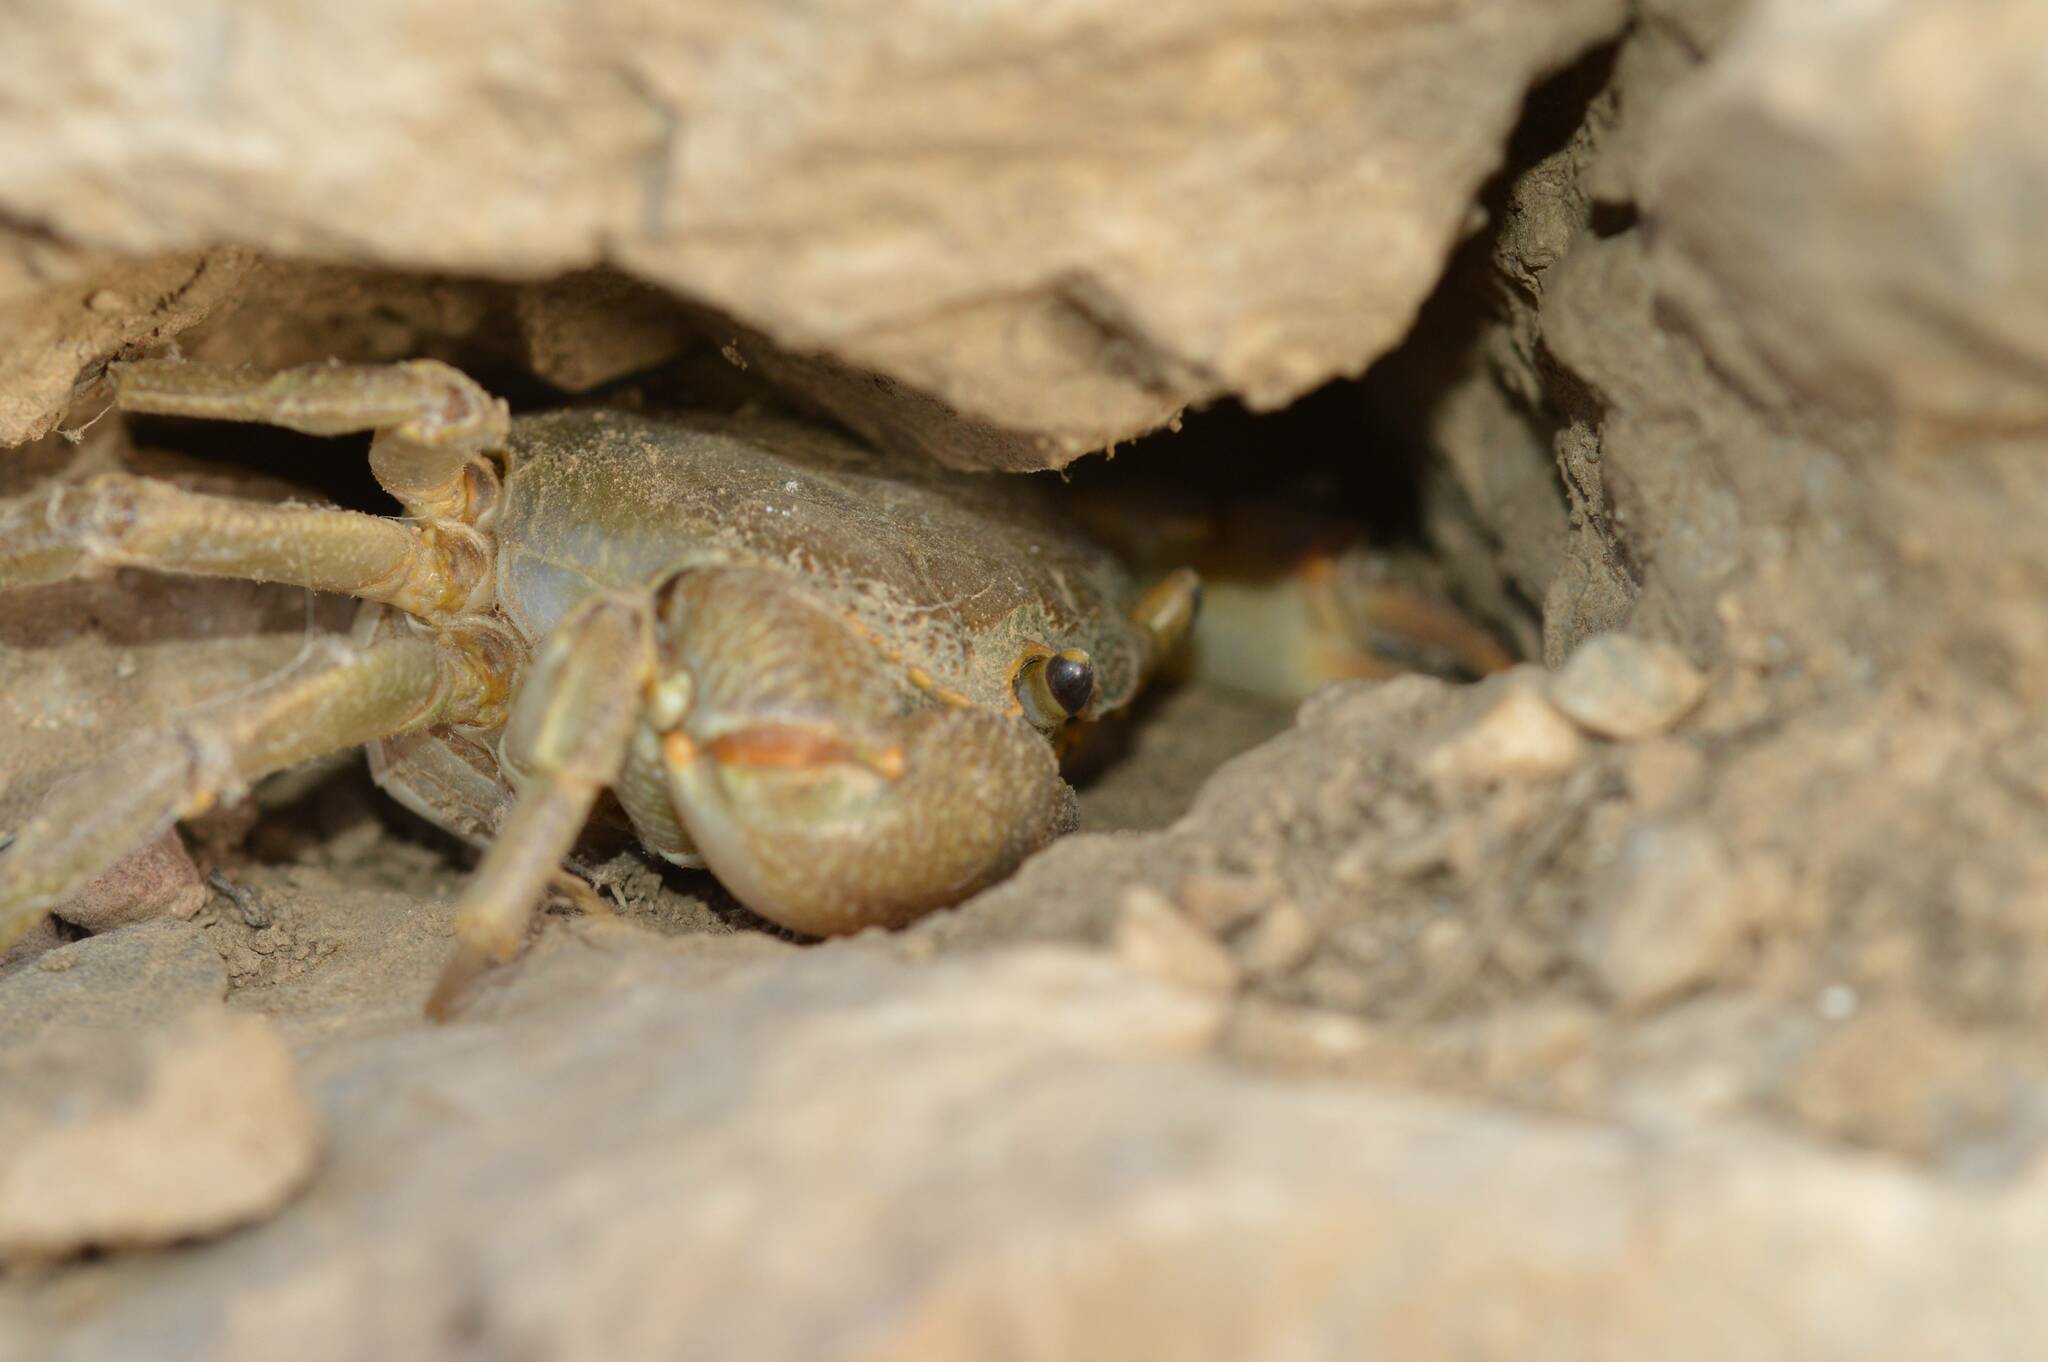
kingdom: Animalia
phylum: Arthropoda
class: Malacostraca
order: Decapoda
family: Potamidae
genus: Potamon
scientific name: Potamon algeriense
